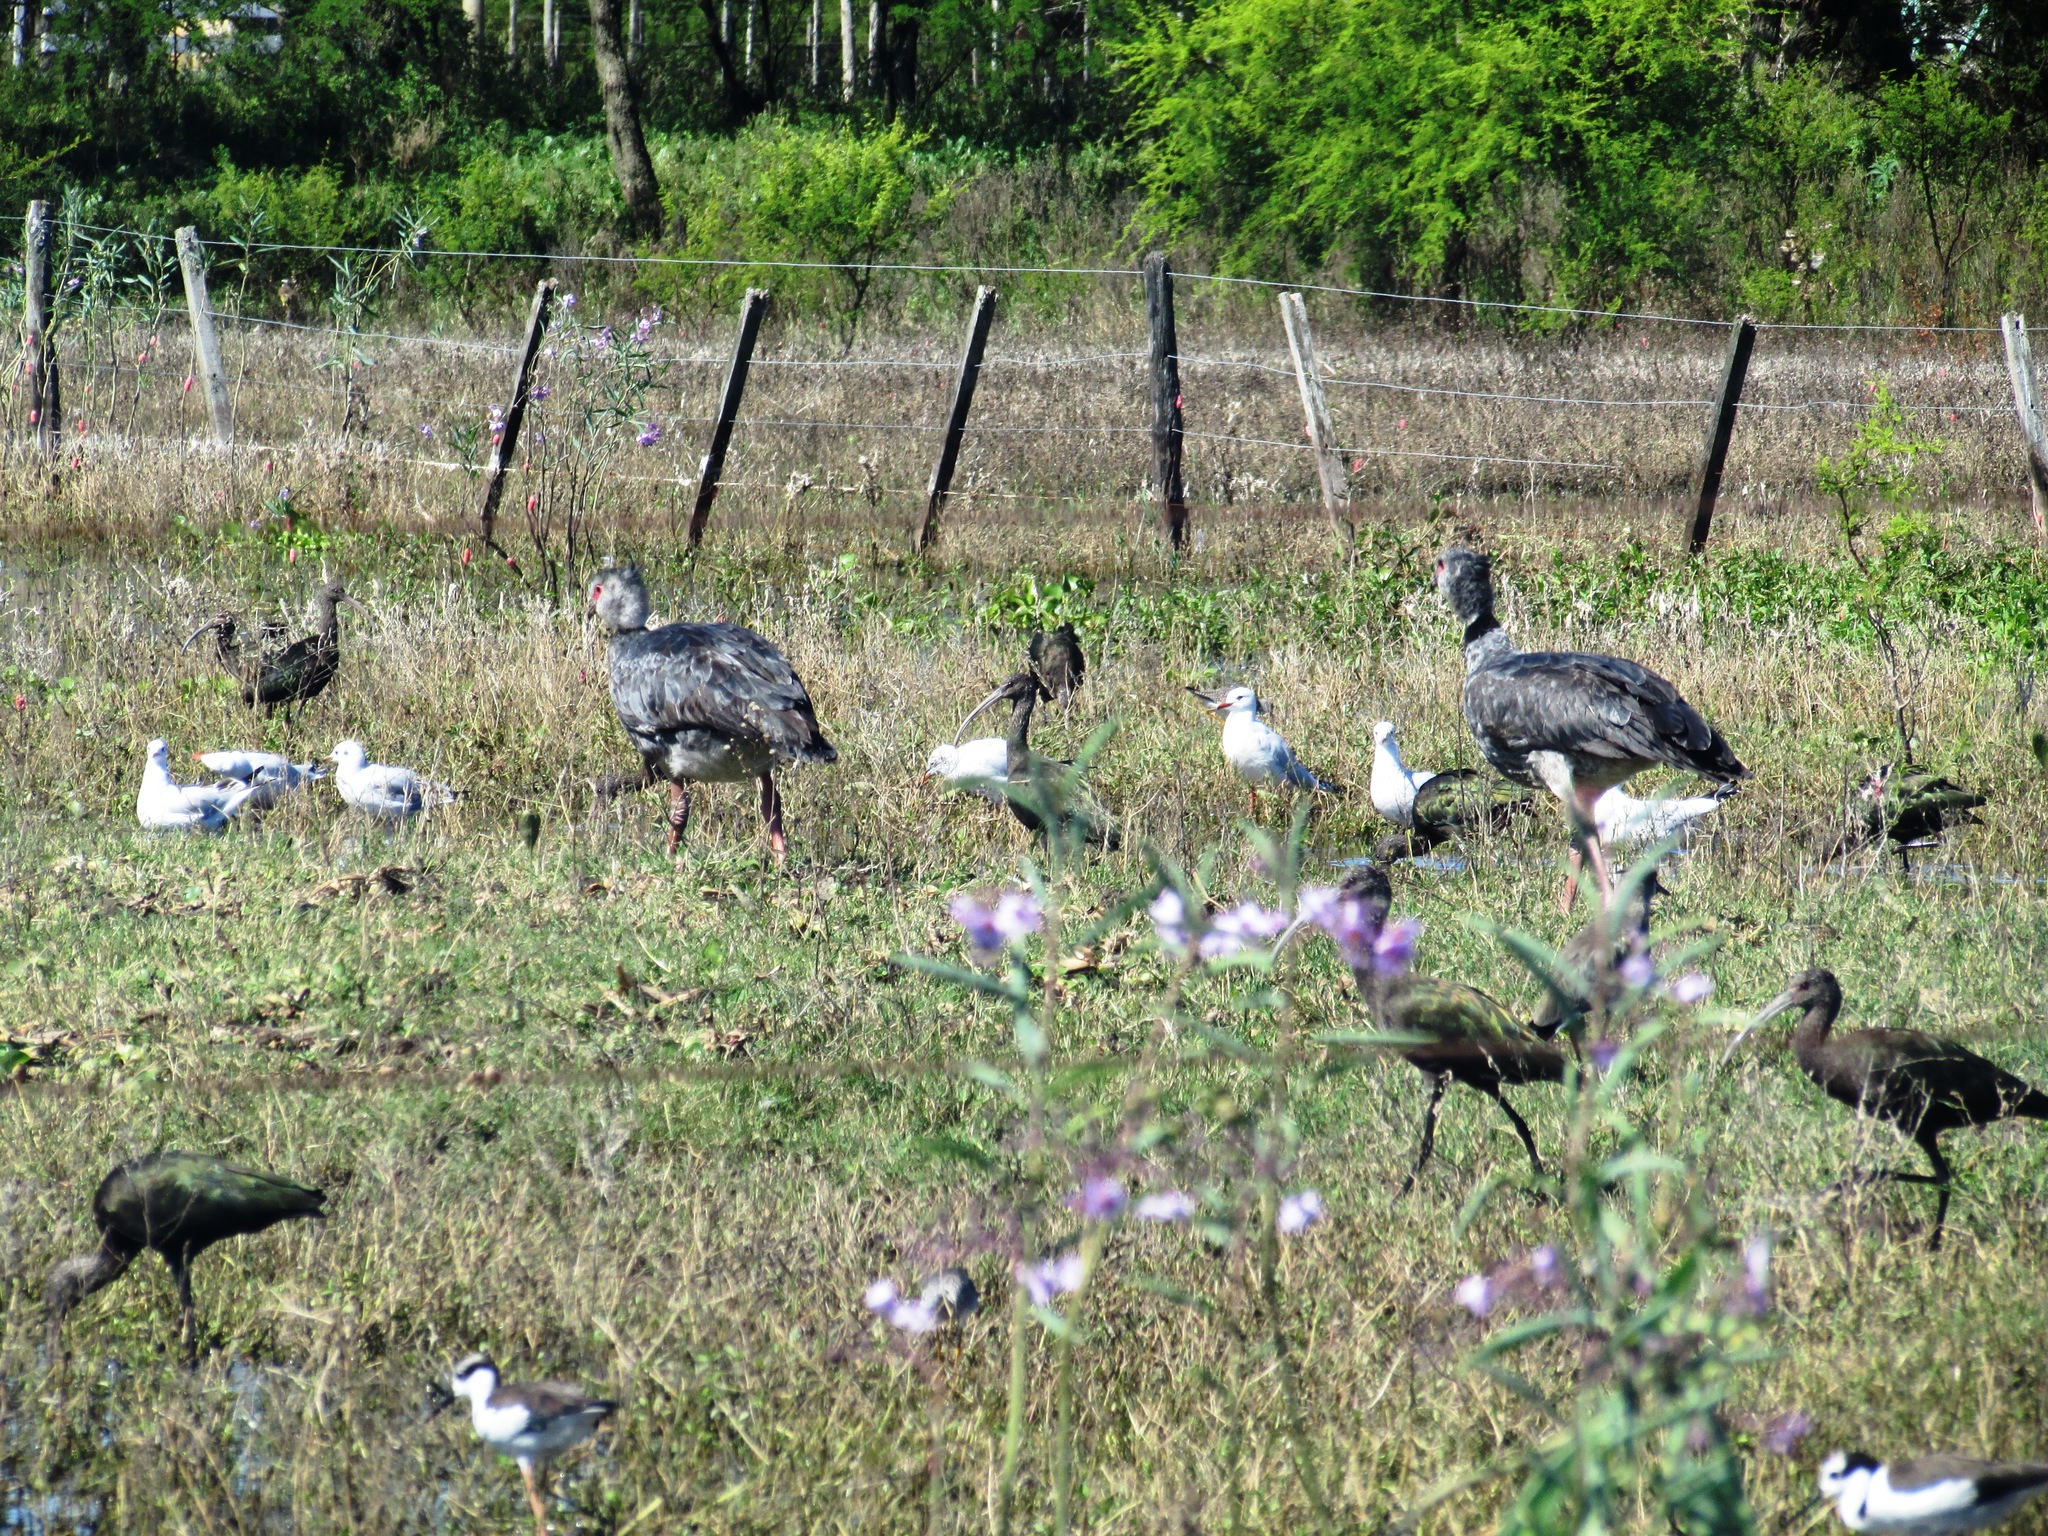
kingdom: Animalia
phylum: Chordata
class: Aves
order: Anseriformes
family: Anhimidae
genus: Chauna
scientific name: Chauna torquata
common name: Southern screamer
